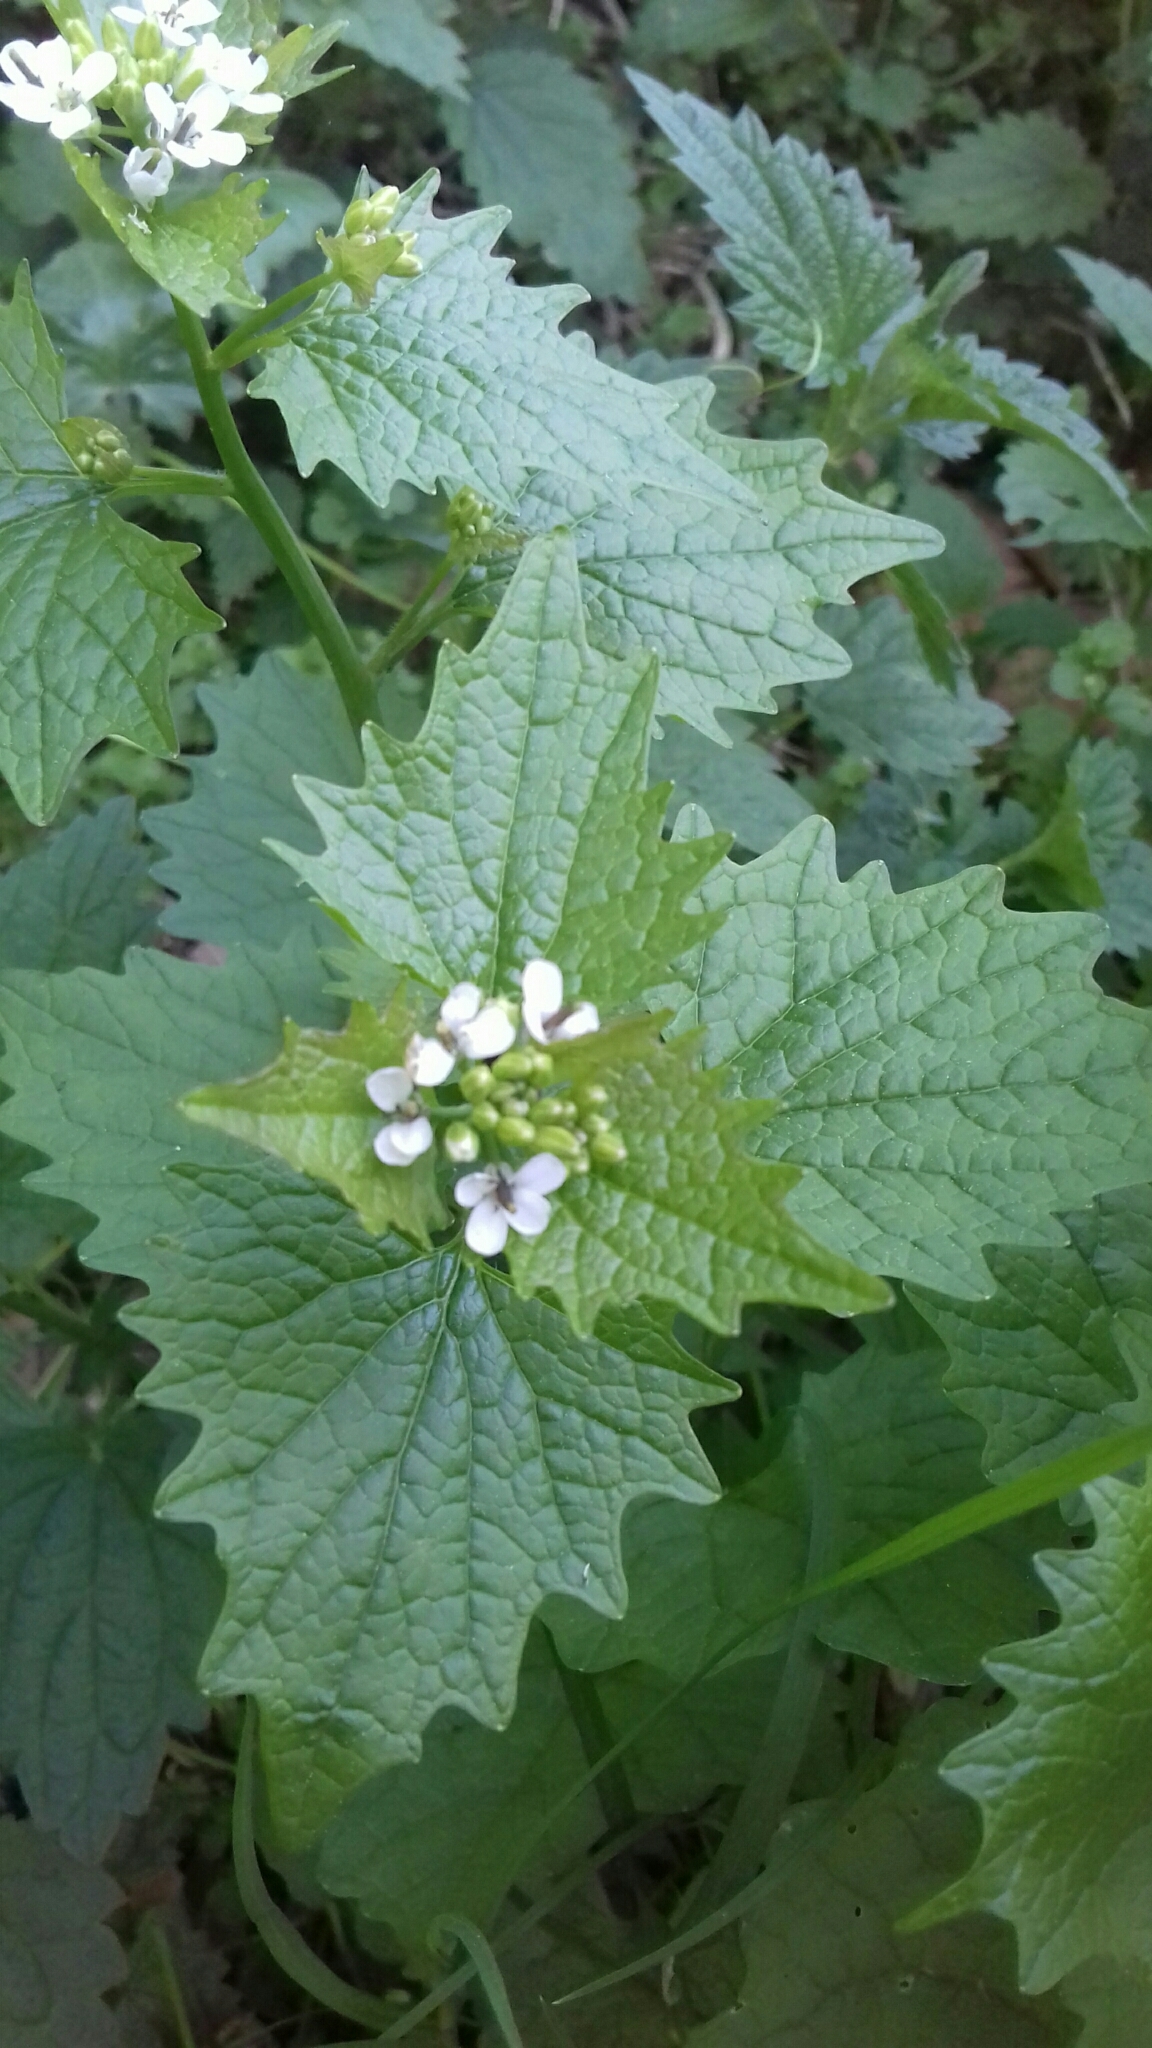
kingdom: Plantae
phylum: Tracheophyta
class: Magnoliopsida
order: Brassicales
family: Brassicaceae
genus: Alliaria
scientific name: Alliaria petiolata
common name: Garlic mustard
